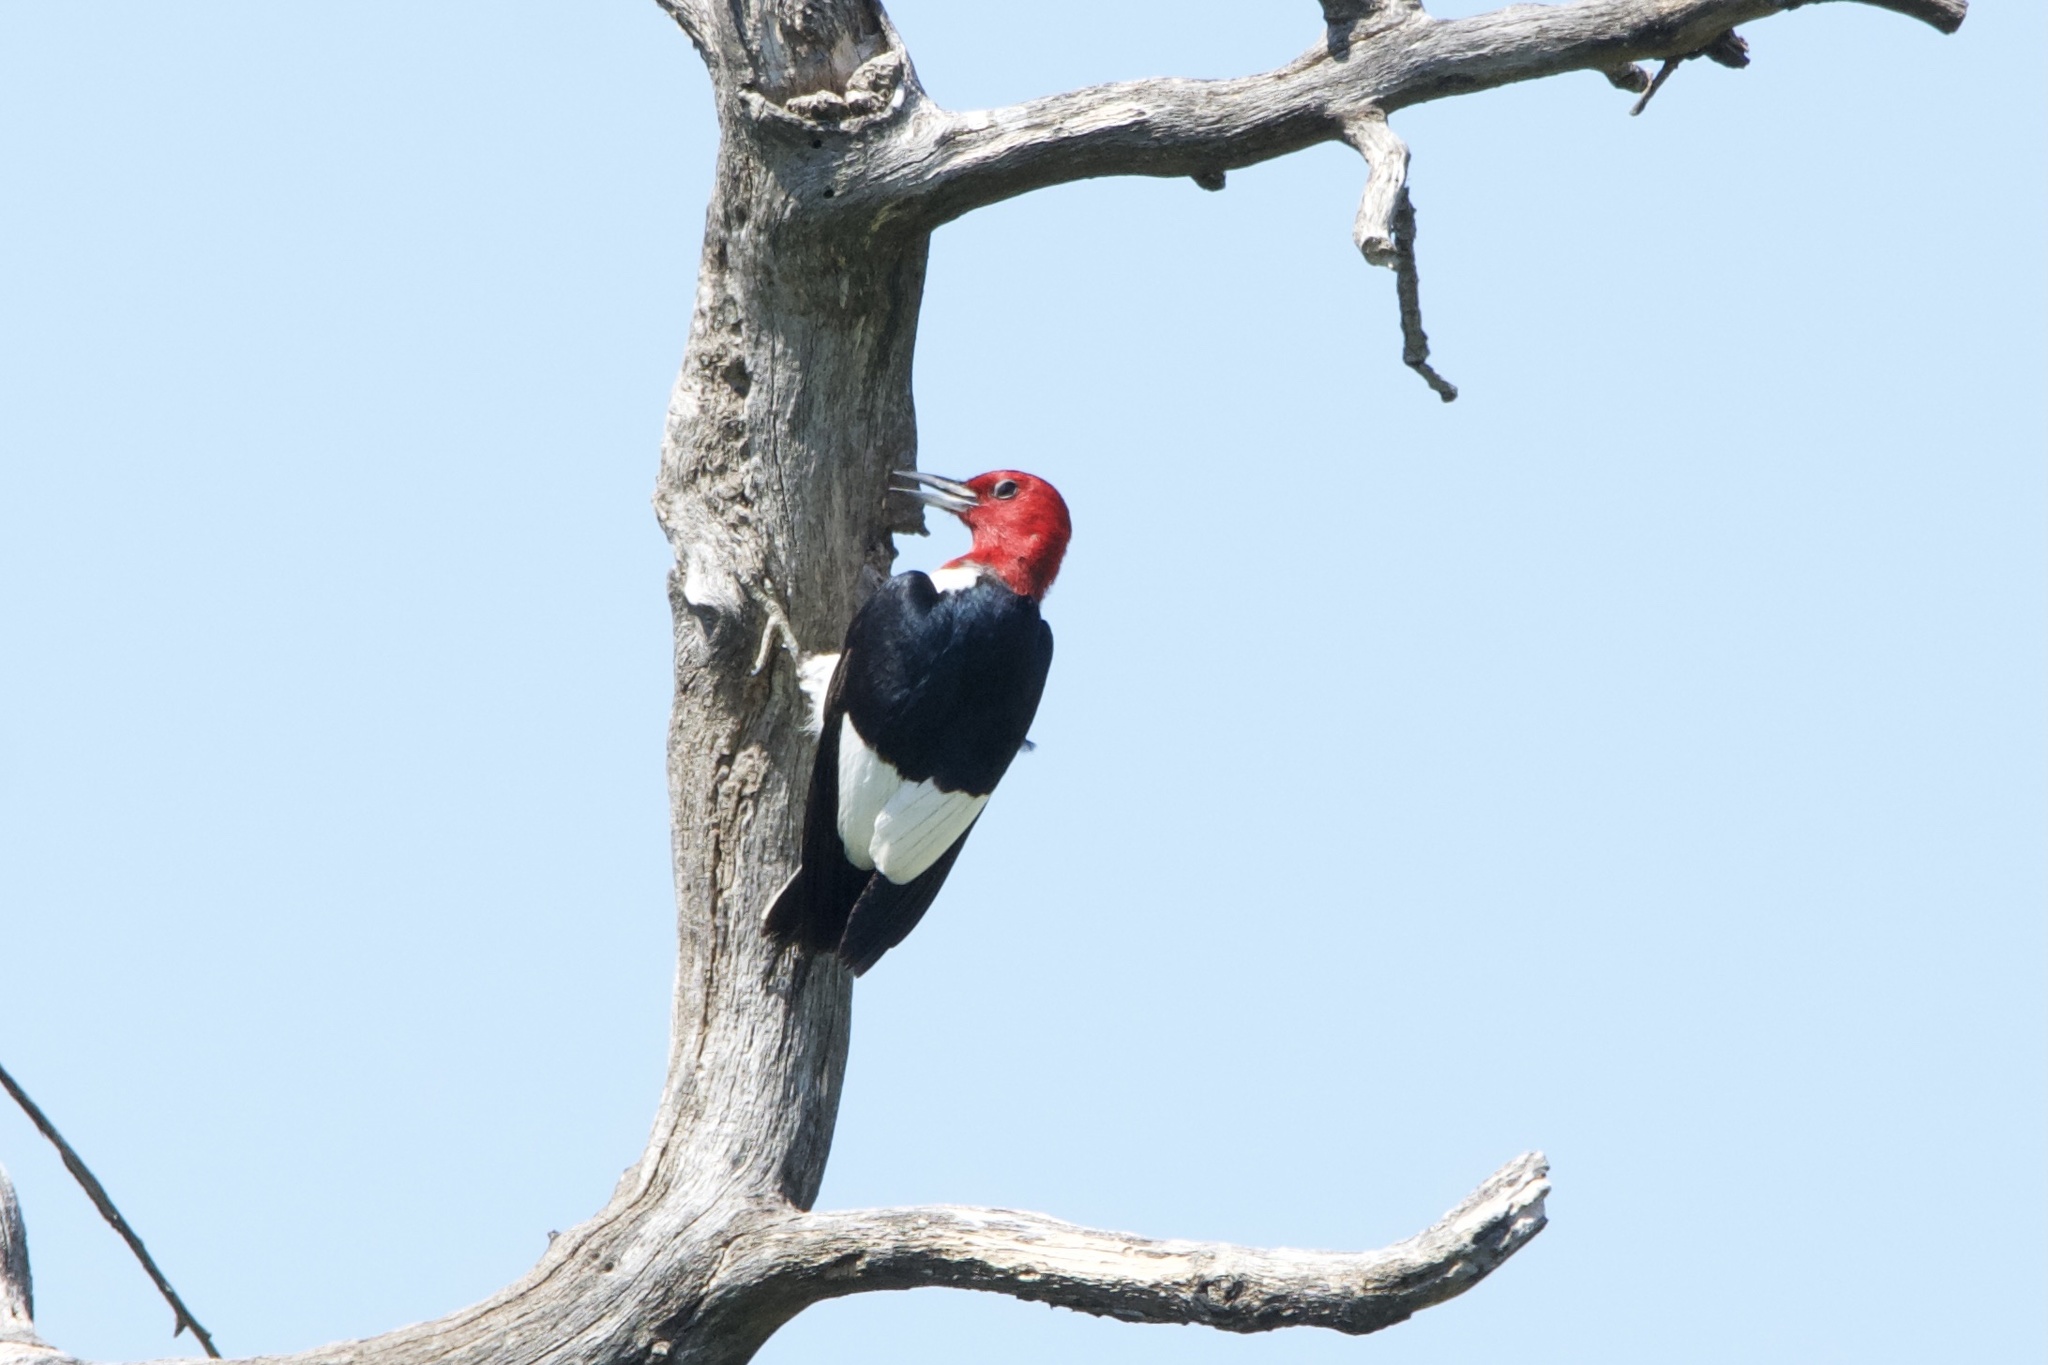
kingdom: Animalia
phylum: Chordata
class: Aves
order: Piciformes
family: Picidae
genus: Melanerpes
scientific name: Melanerpes erythrocephalus
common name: Red-headed woodpecker
